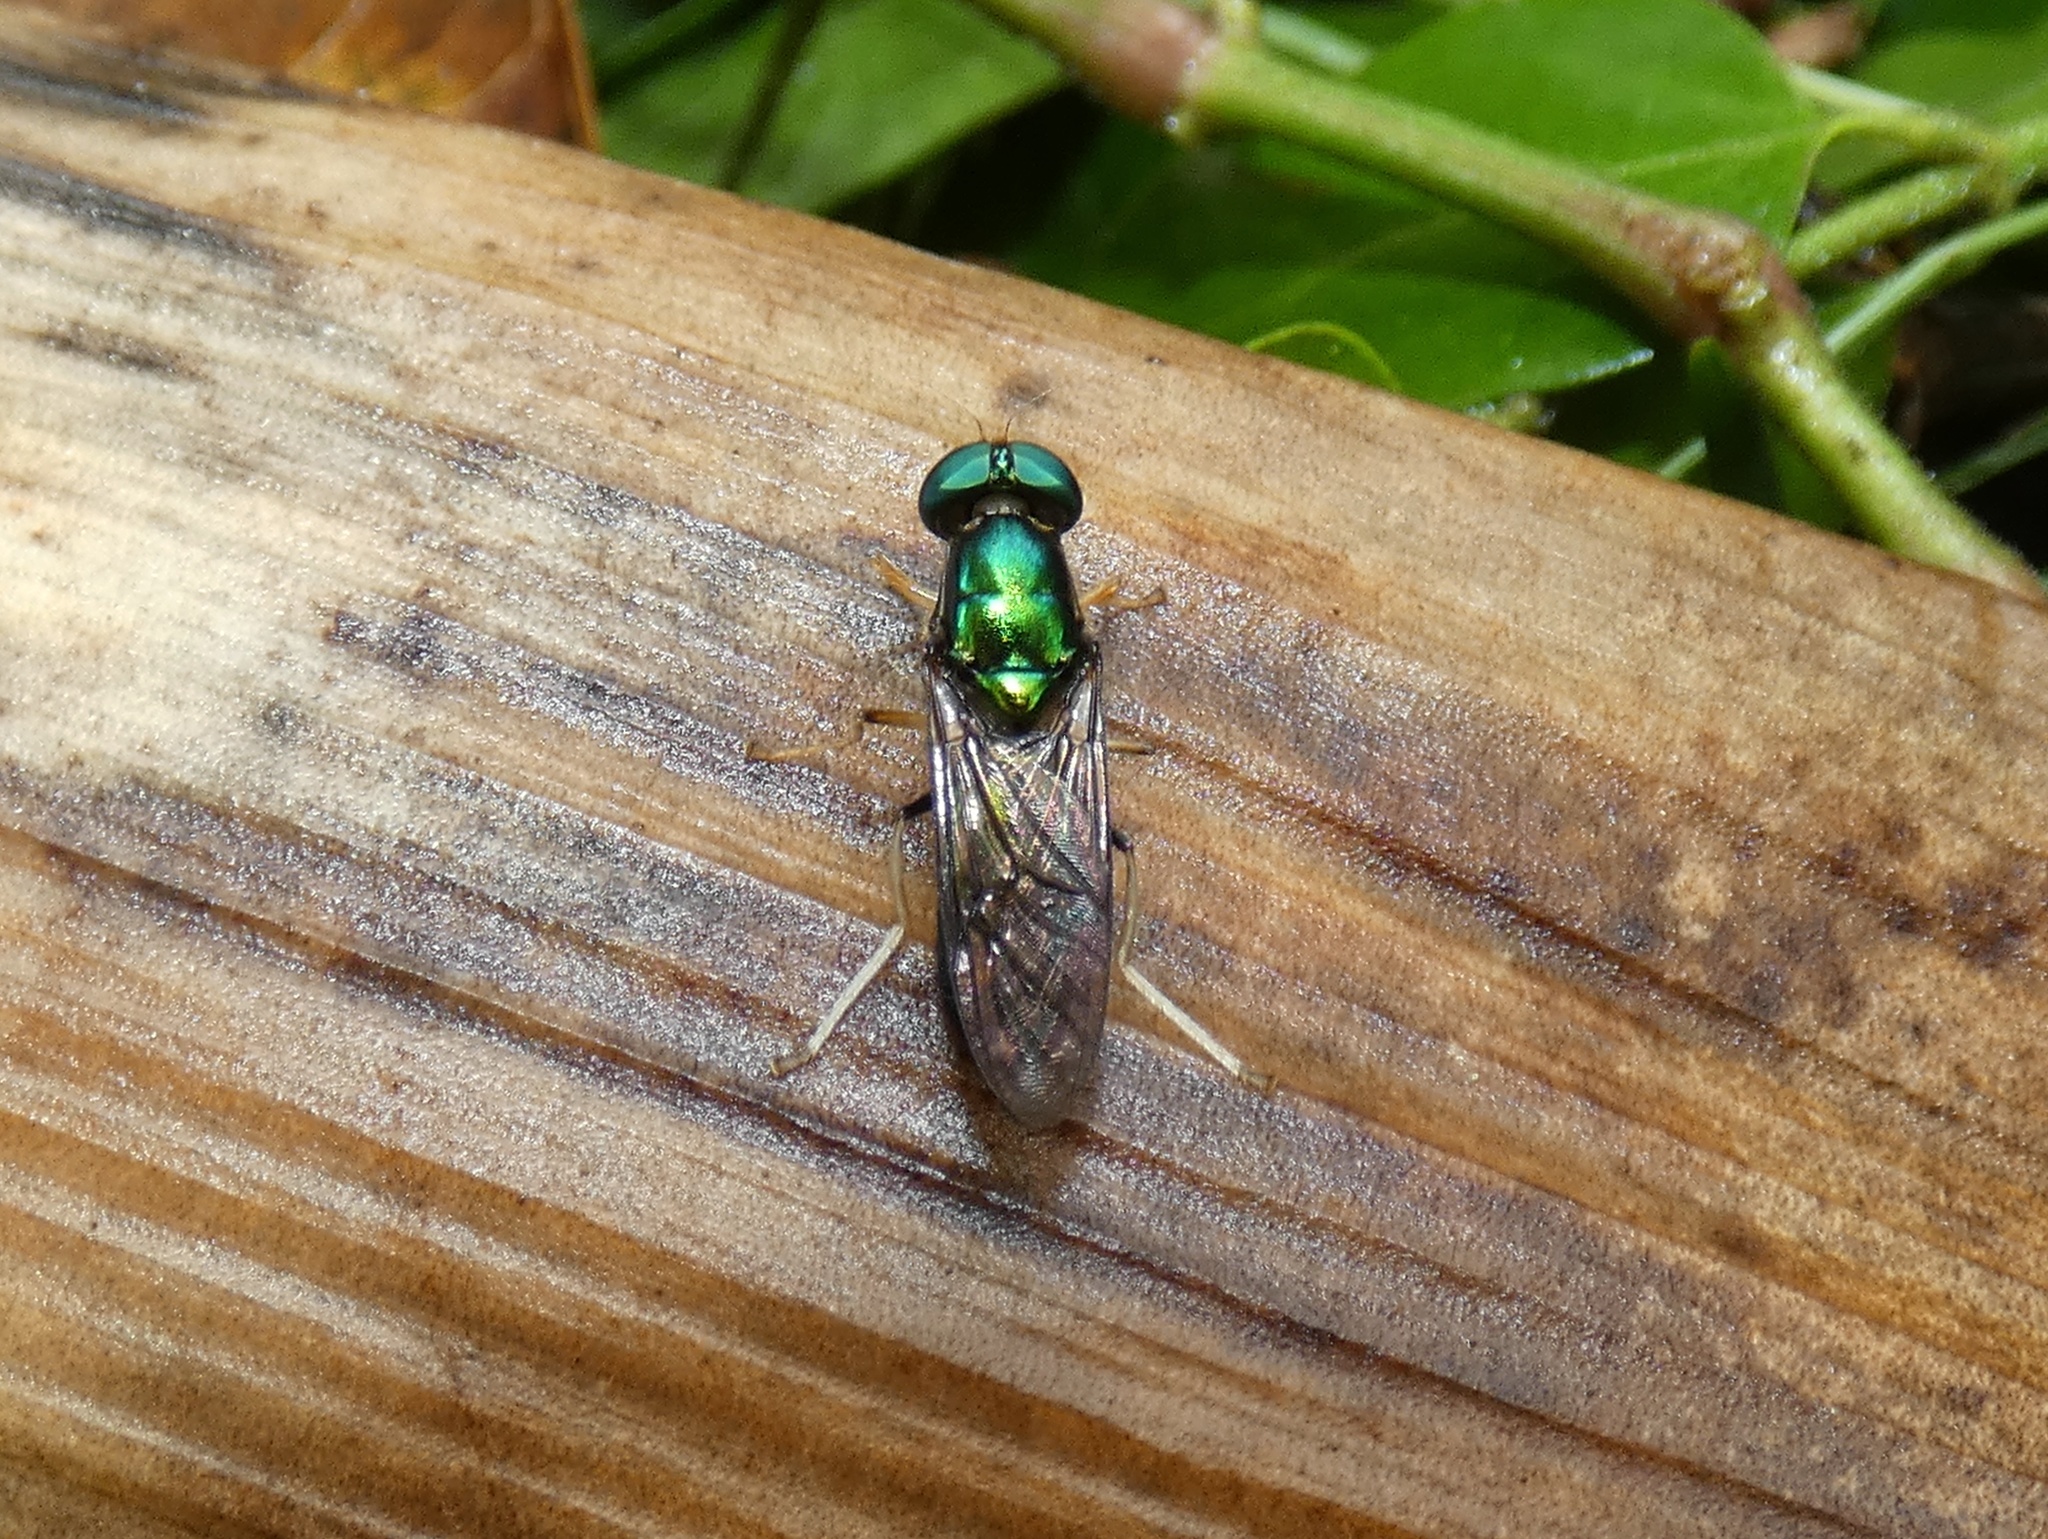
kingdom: Animalia
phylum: Arthropoda
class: Insecta
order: Diptera
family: Stratiomyidae
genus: Himantigera
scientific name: Himantigera silvestris
